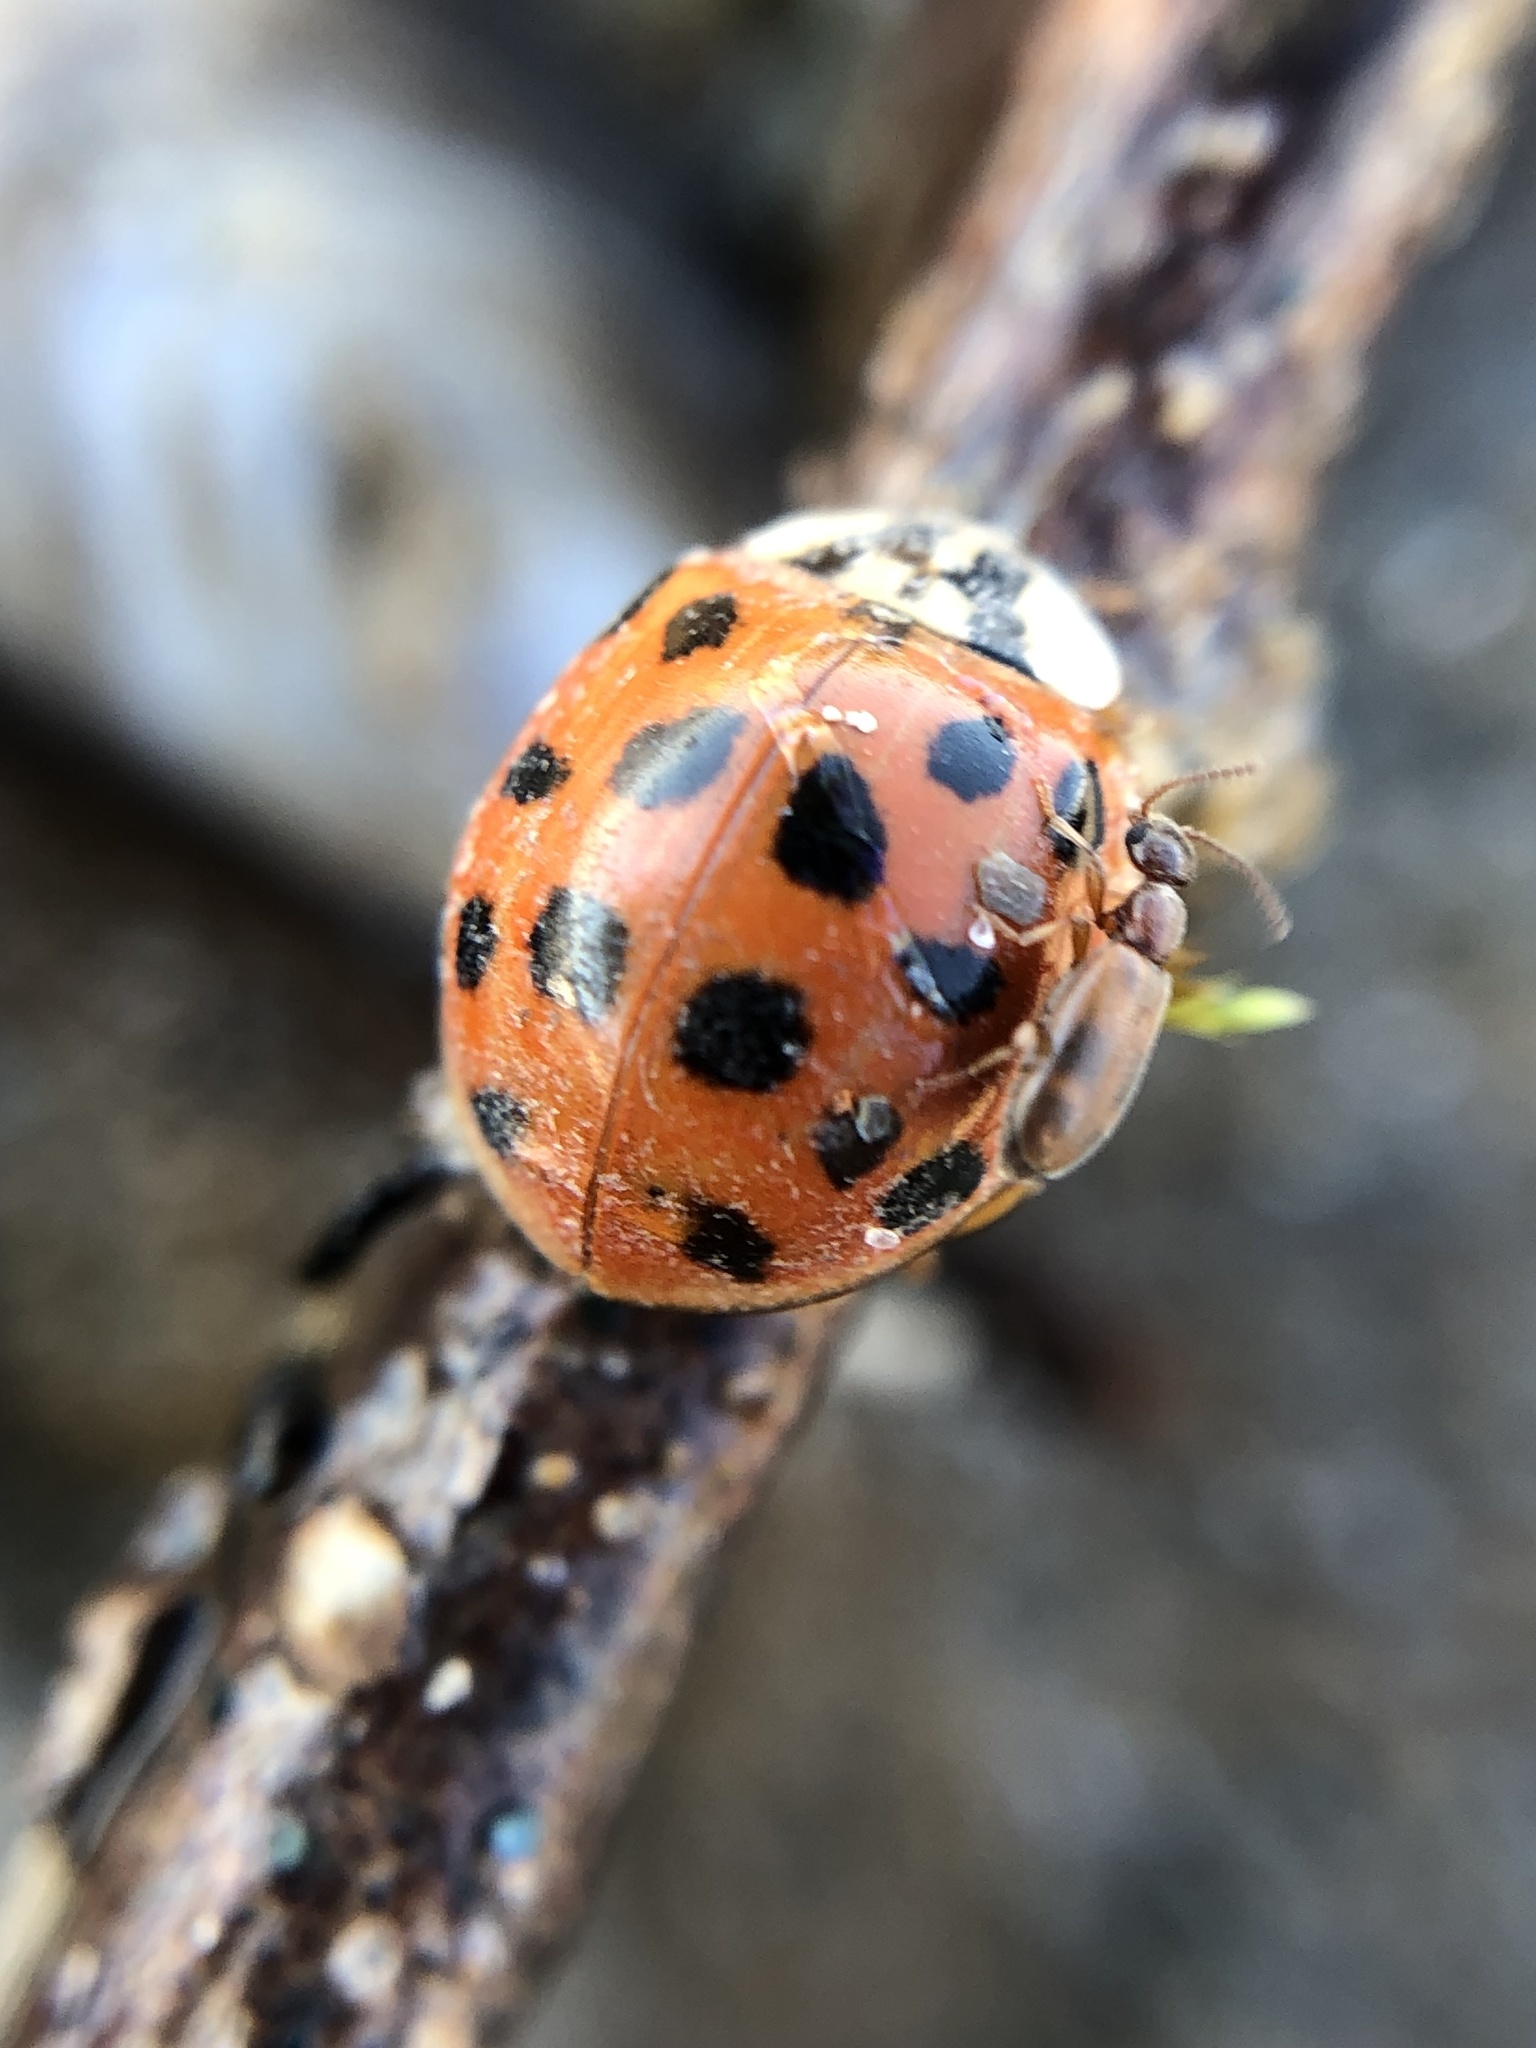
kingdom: Animalia
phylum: Arthropoda
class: Insecta
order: Coleoptera
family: Coccinellidae
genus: Harmonia
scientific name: Harmonia axyridis
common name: Harlequin ladybird
